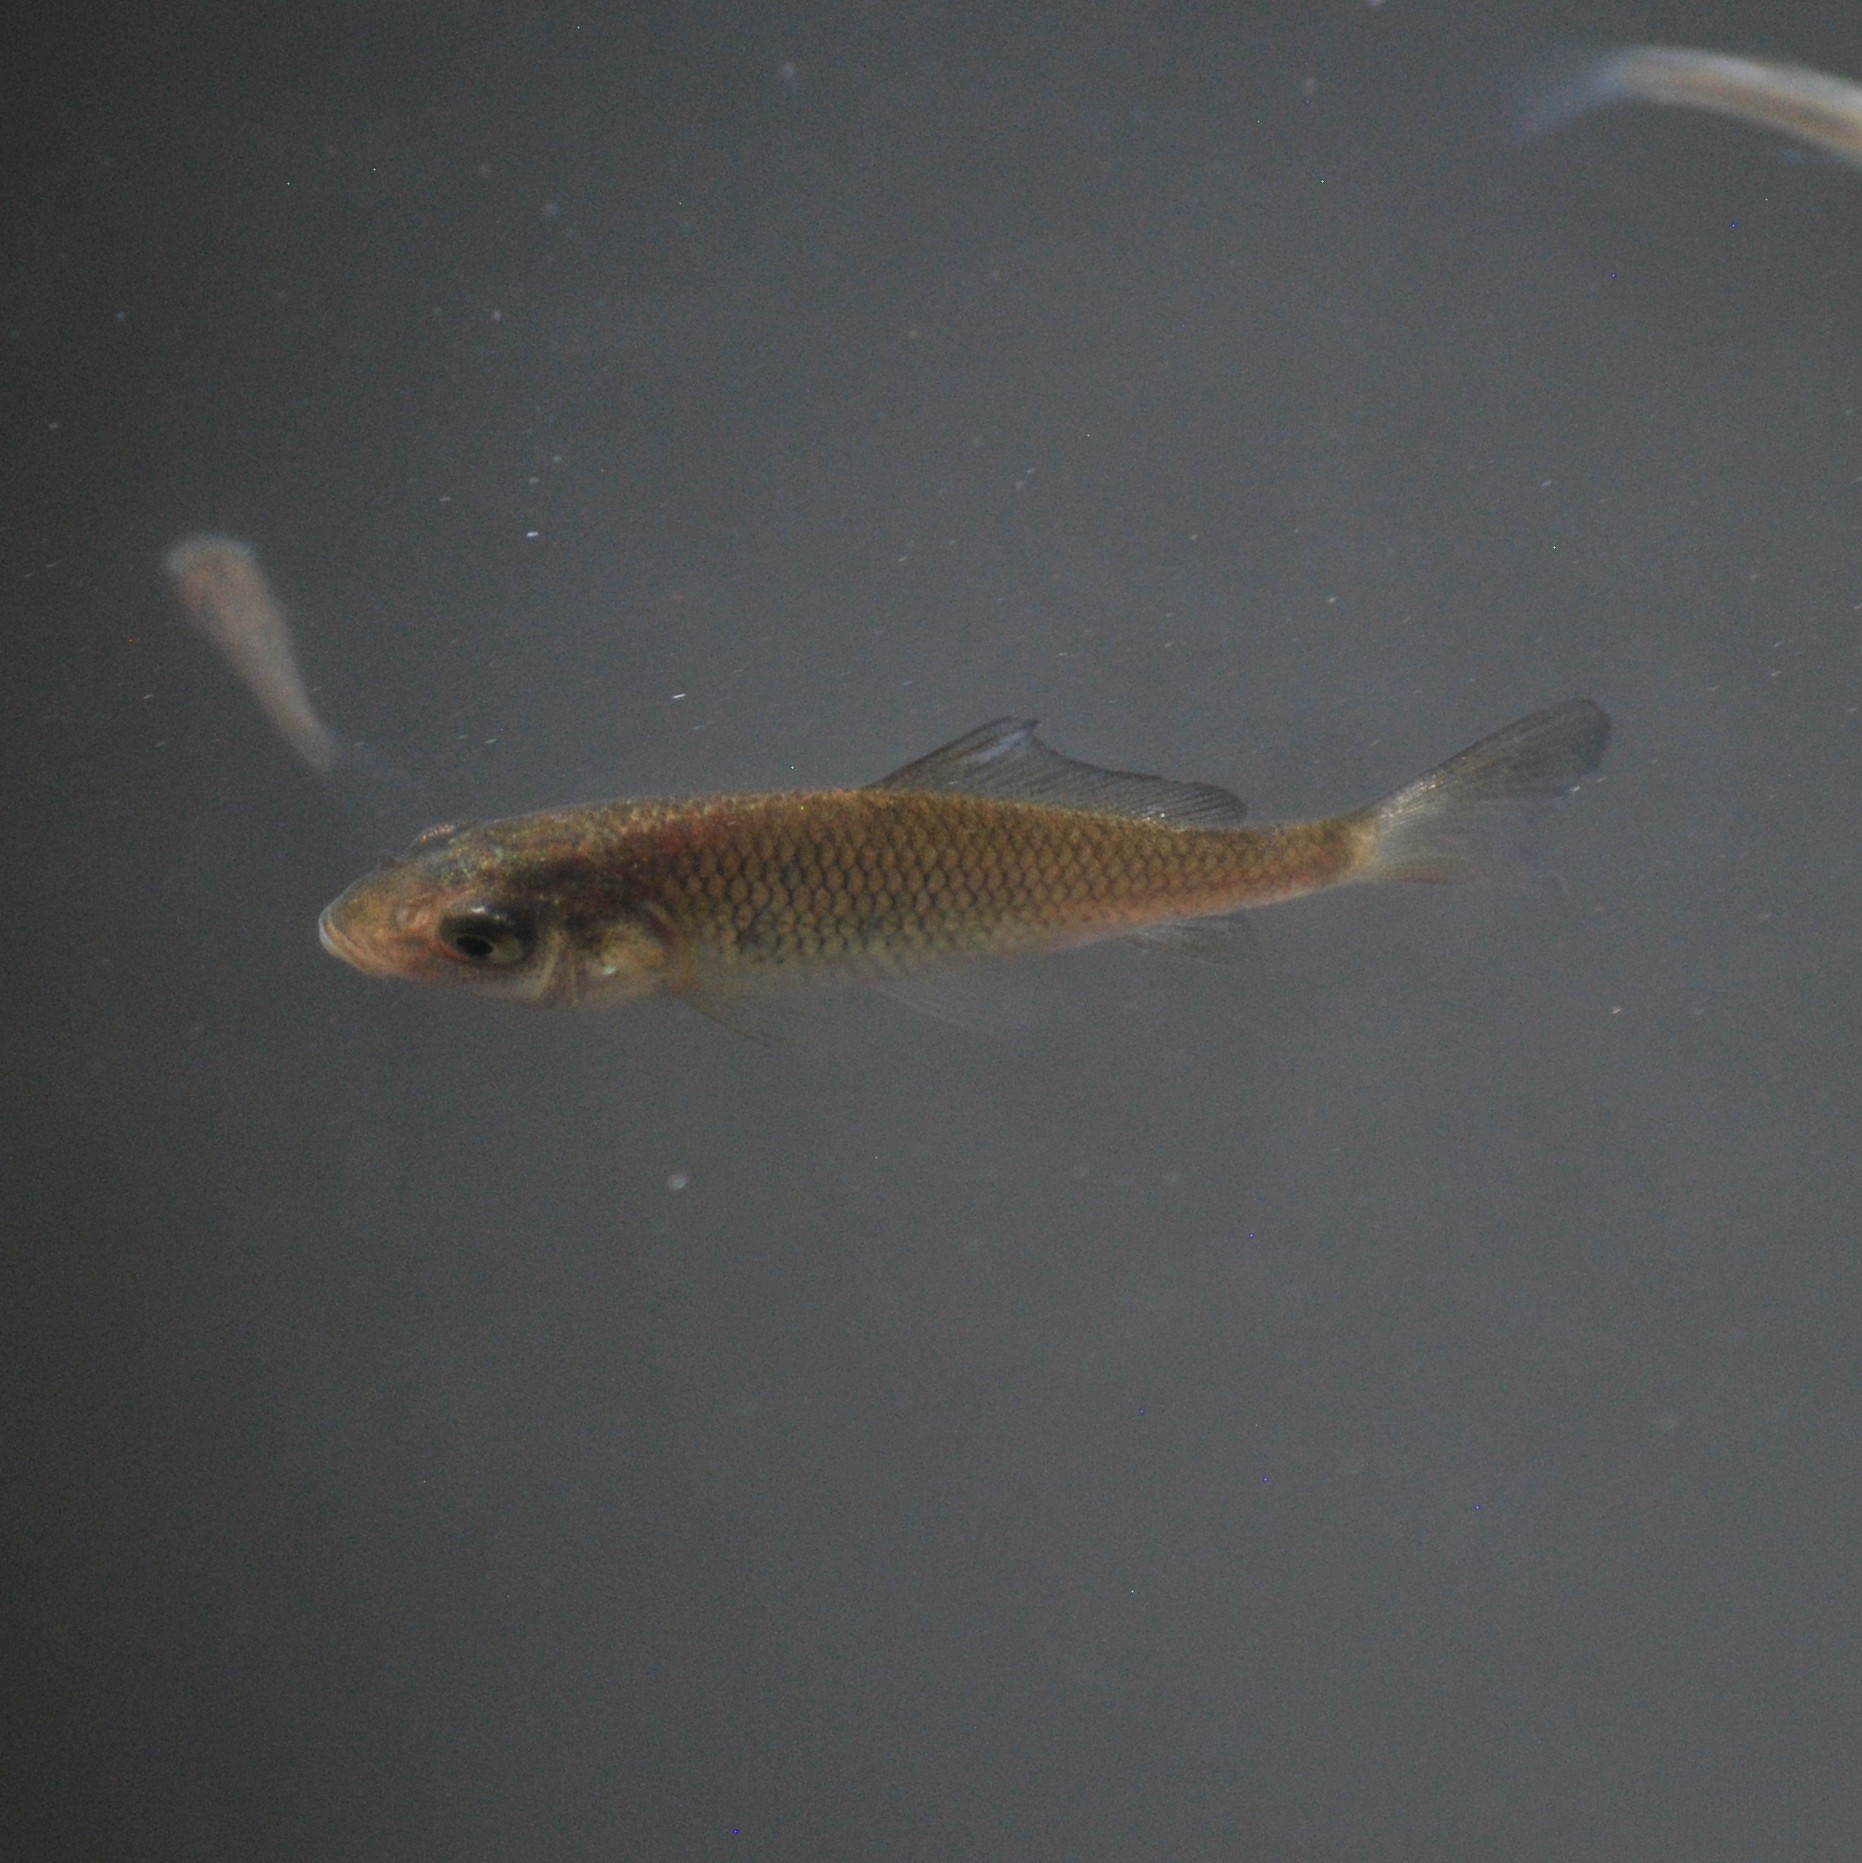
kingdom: Animalia
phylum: Chordata
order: Cypriniformes
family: Cyprinidae
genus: Cyprinus
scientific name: Cyprinus carpio
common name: Common carp
